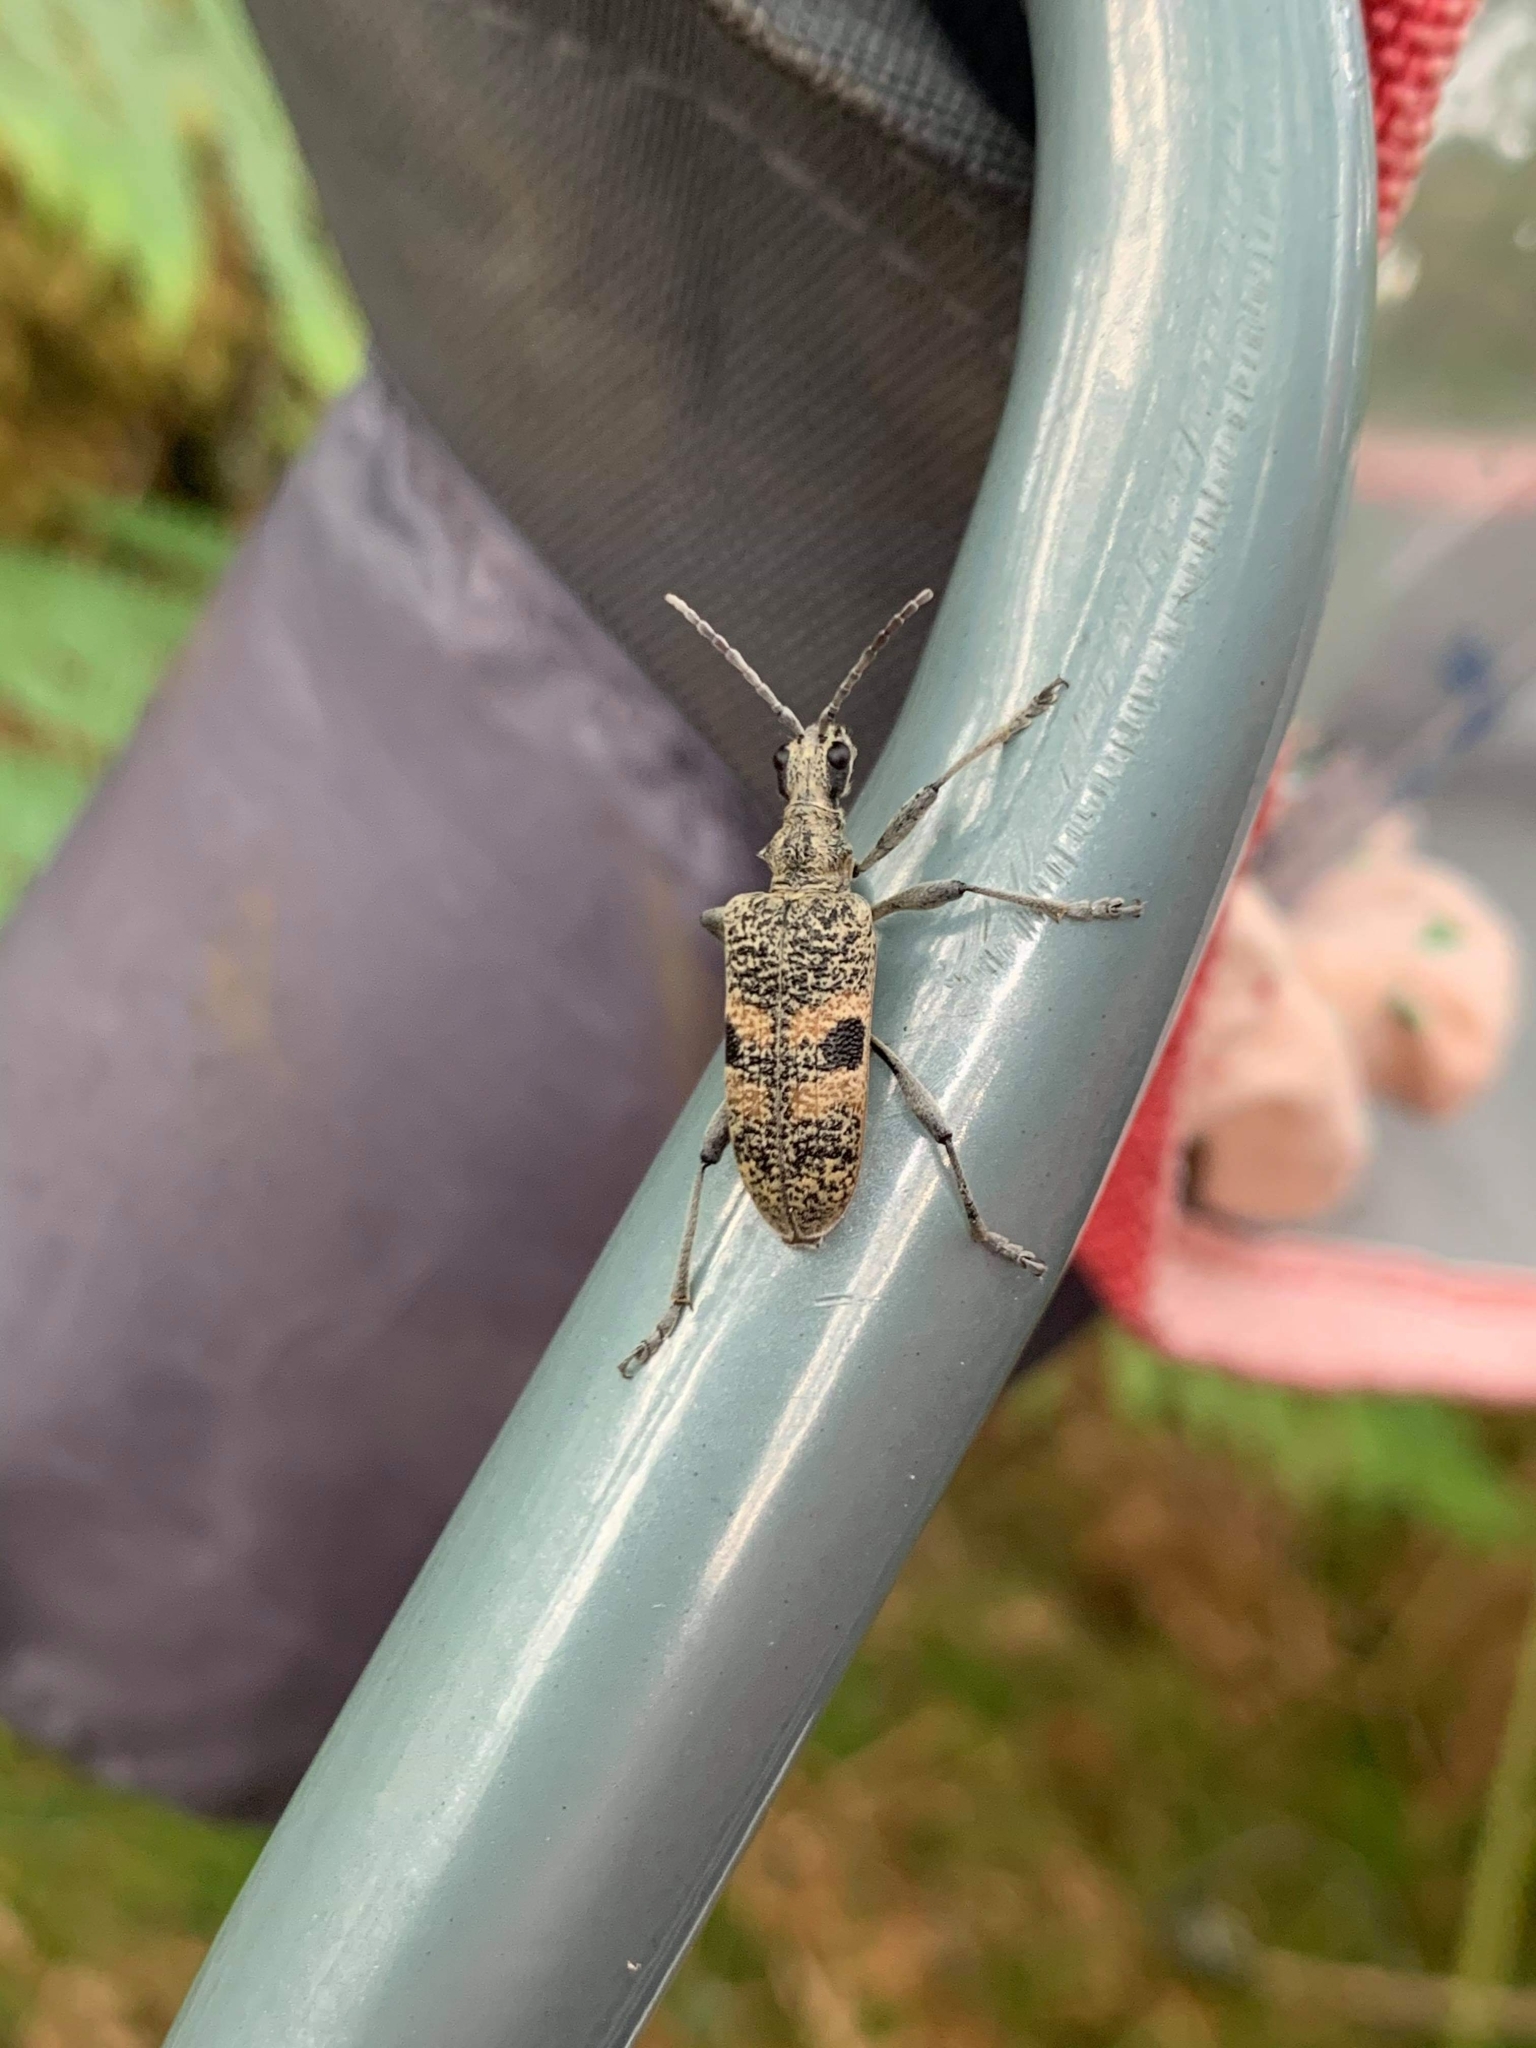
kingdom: Animalia
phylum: Arthropoda
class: Insecta
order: Coleoptera
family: Cerambycidae
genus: Rhagium
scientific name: Rhagium mordax
